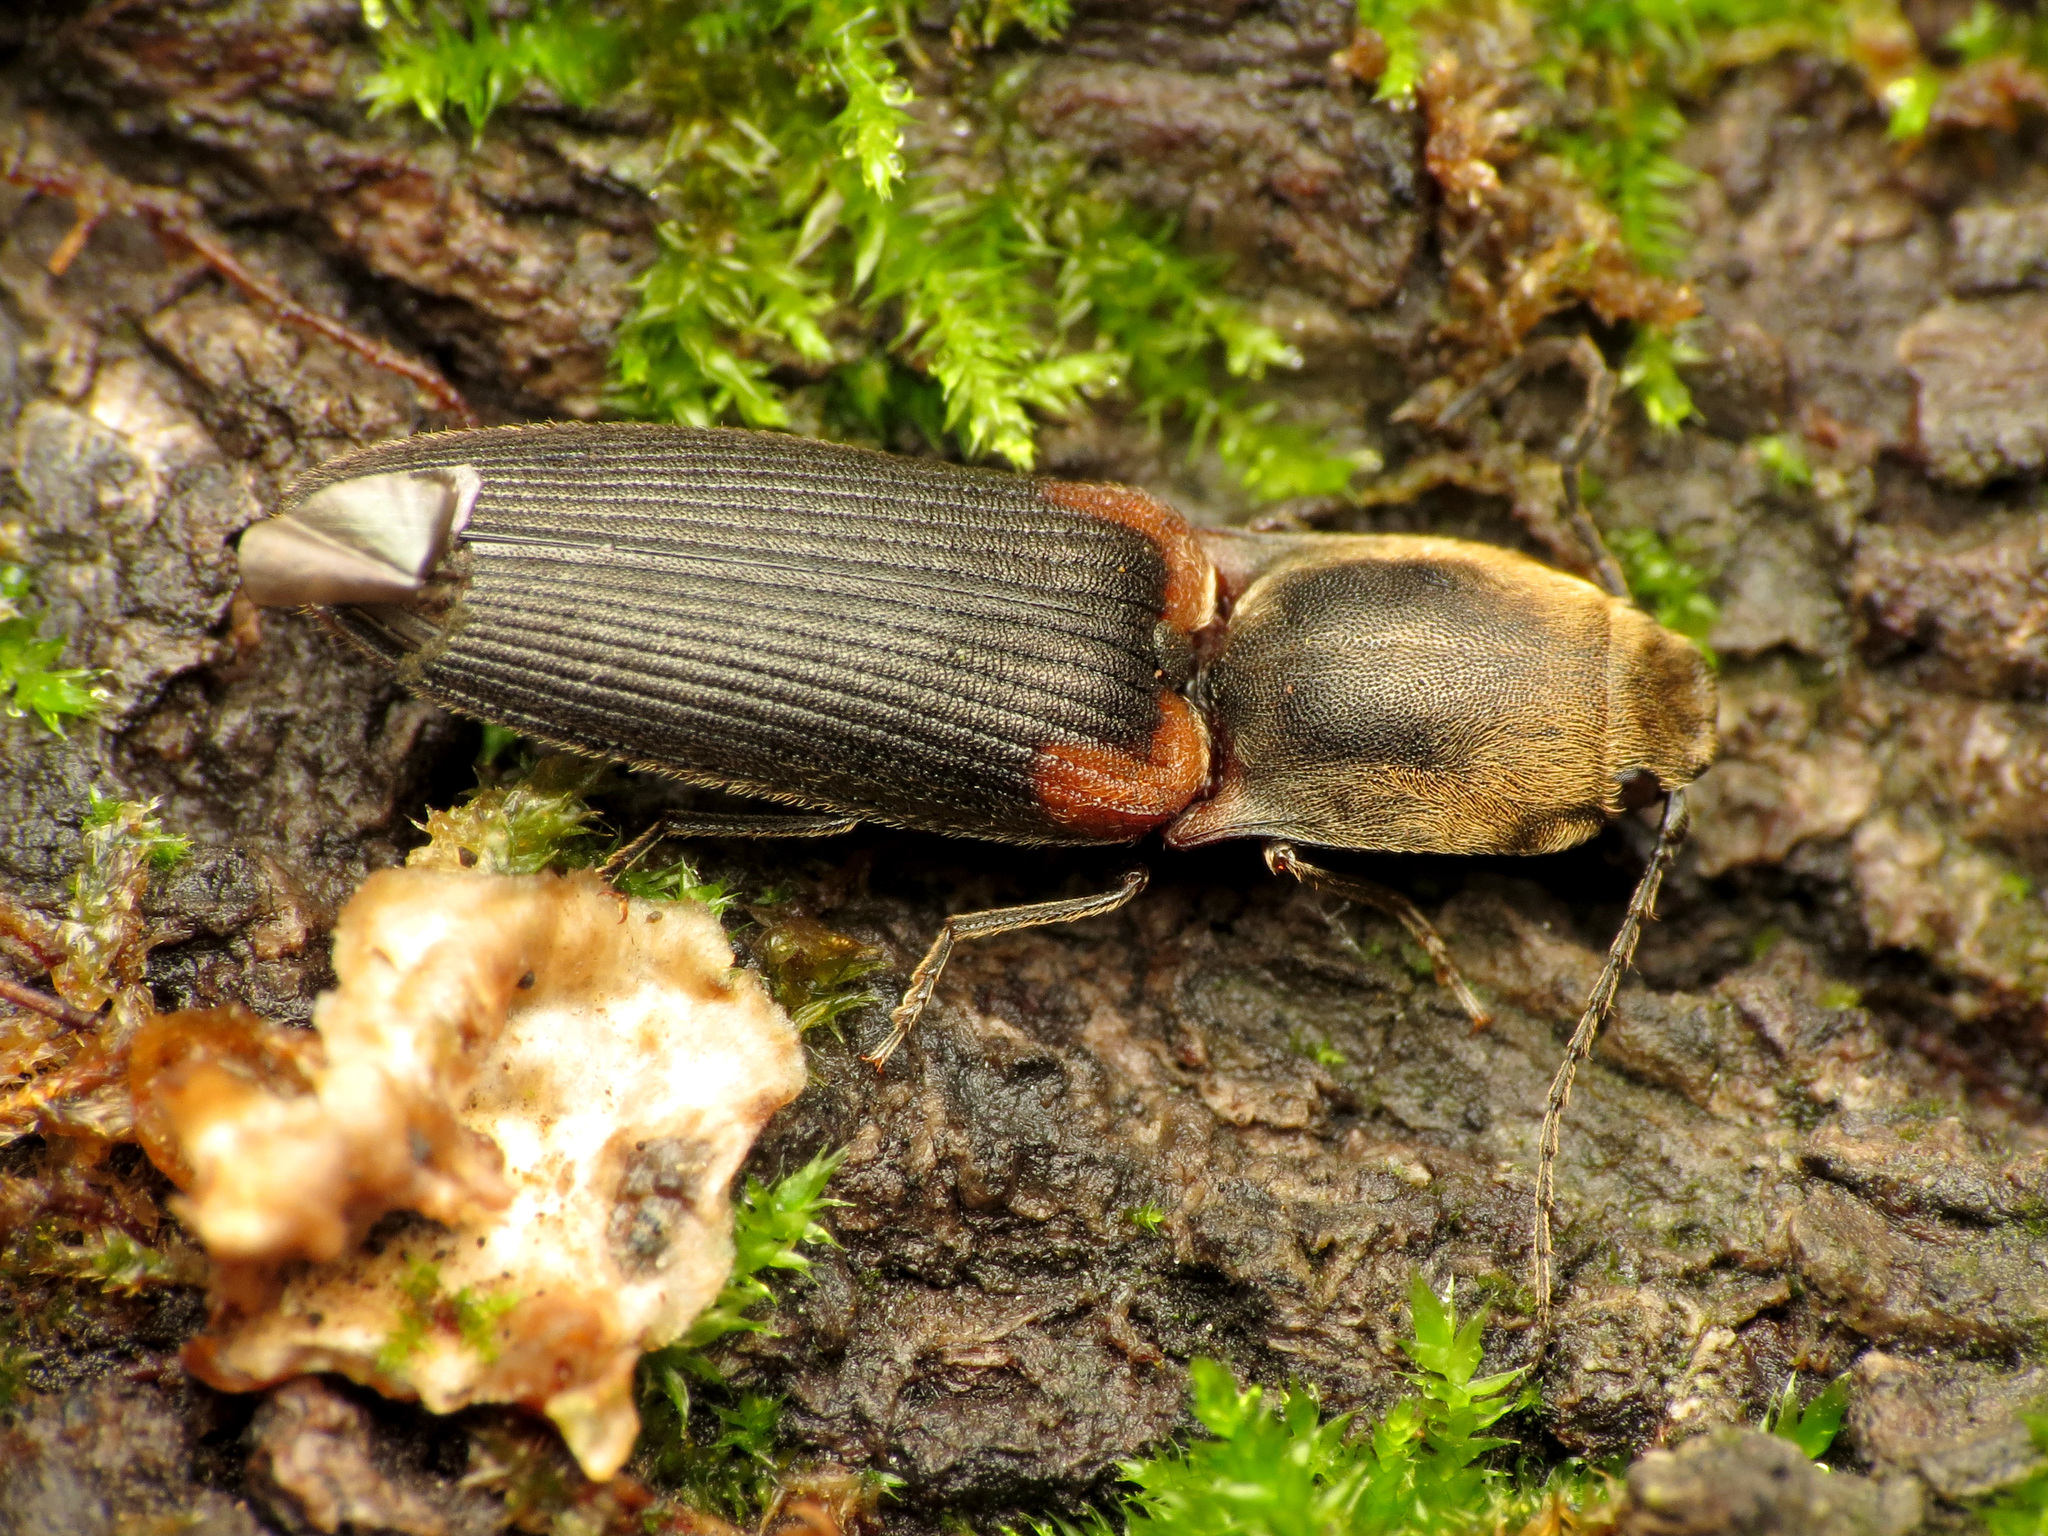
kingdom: Animalia
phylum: Arthropoda
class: Insecta
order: Coleoptera
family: Elateridae
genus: Athous
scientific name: Athous scapularis
